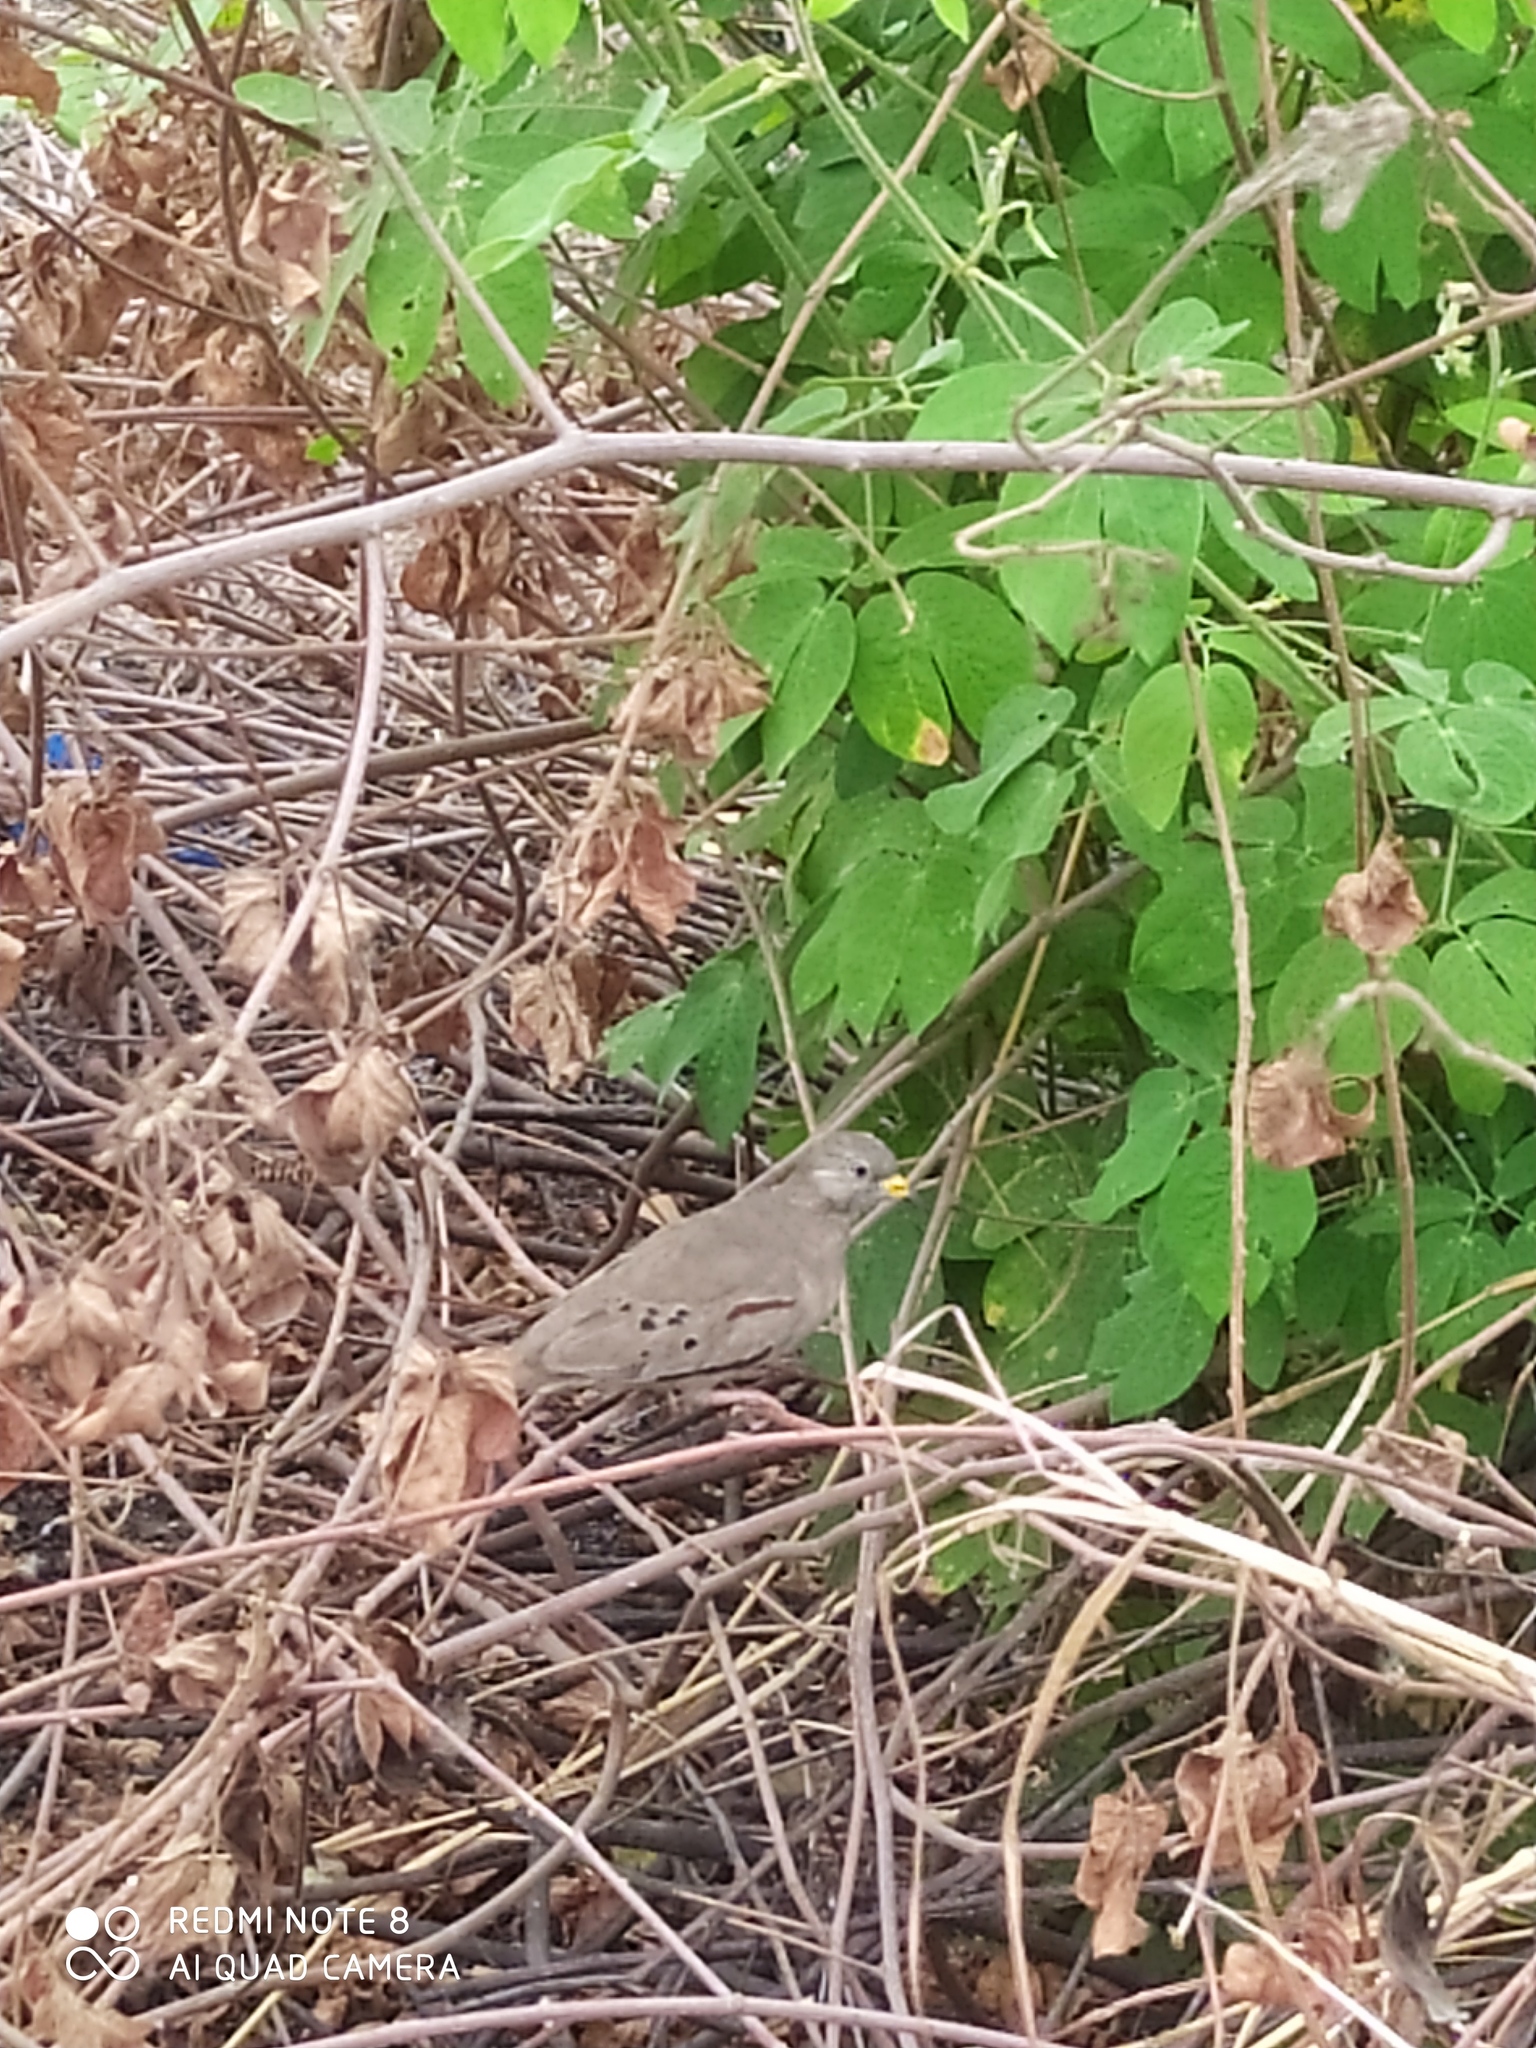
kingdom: Animalia
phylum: Chordata
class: Aves
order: Columbiformes
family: Columbidae
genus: Columbina
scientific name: Columbina cruziana
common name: Croaking ground dove
